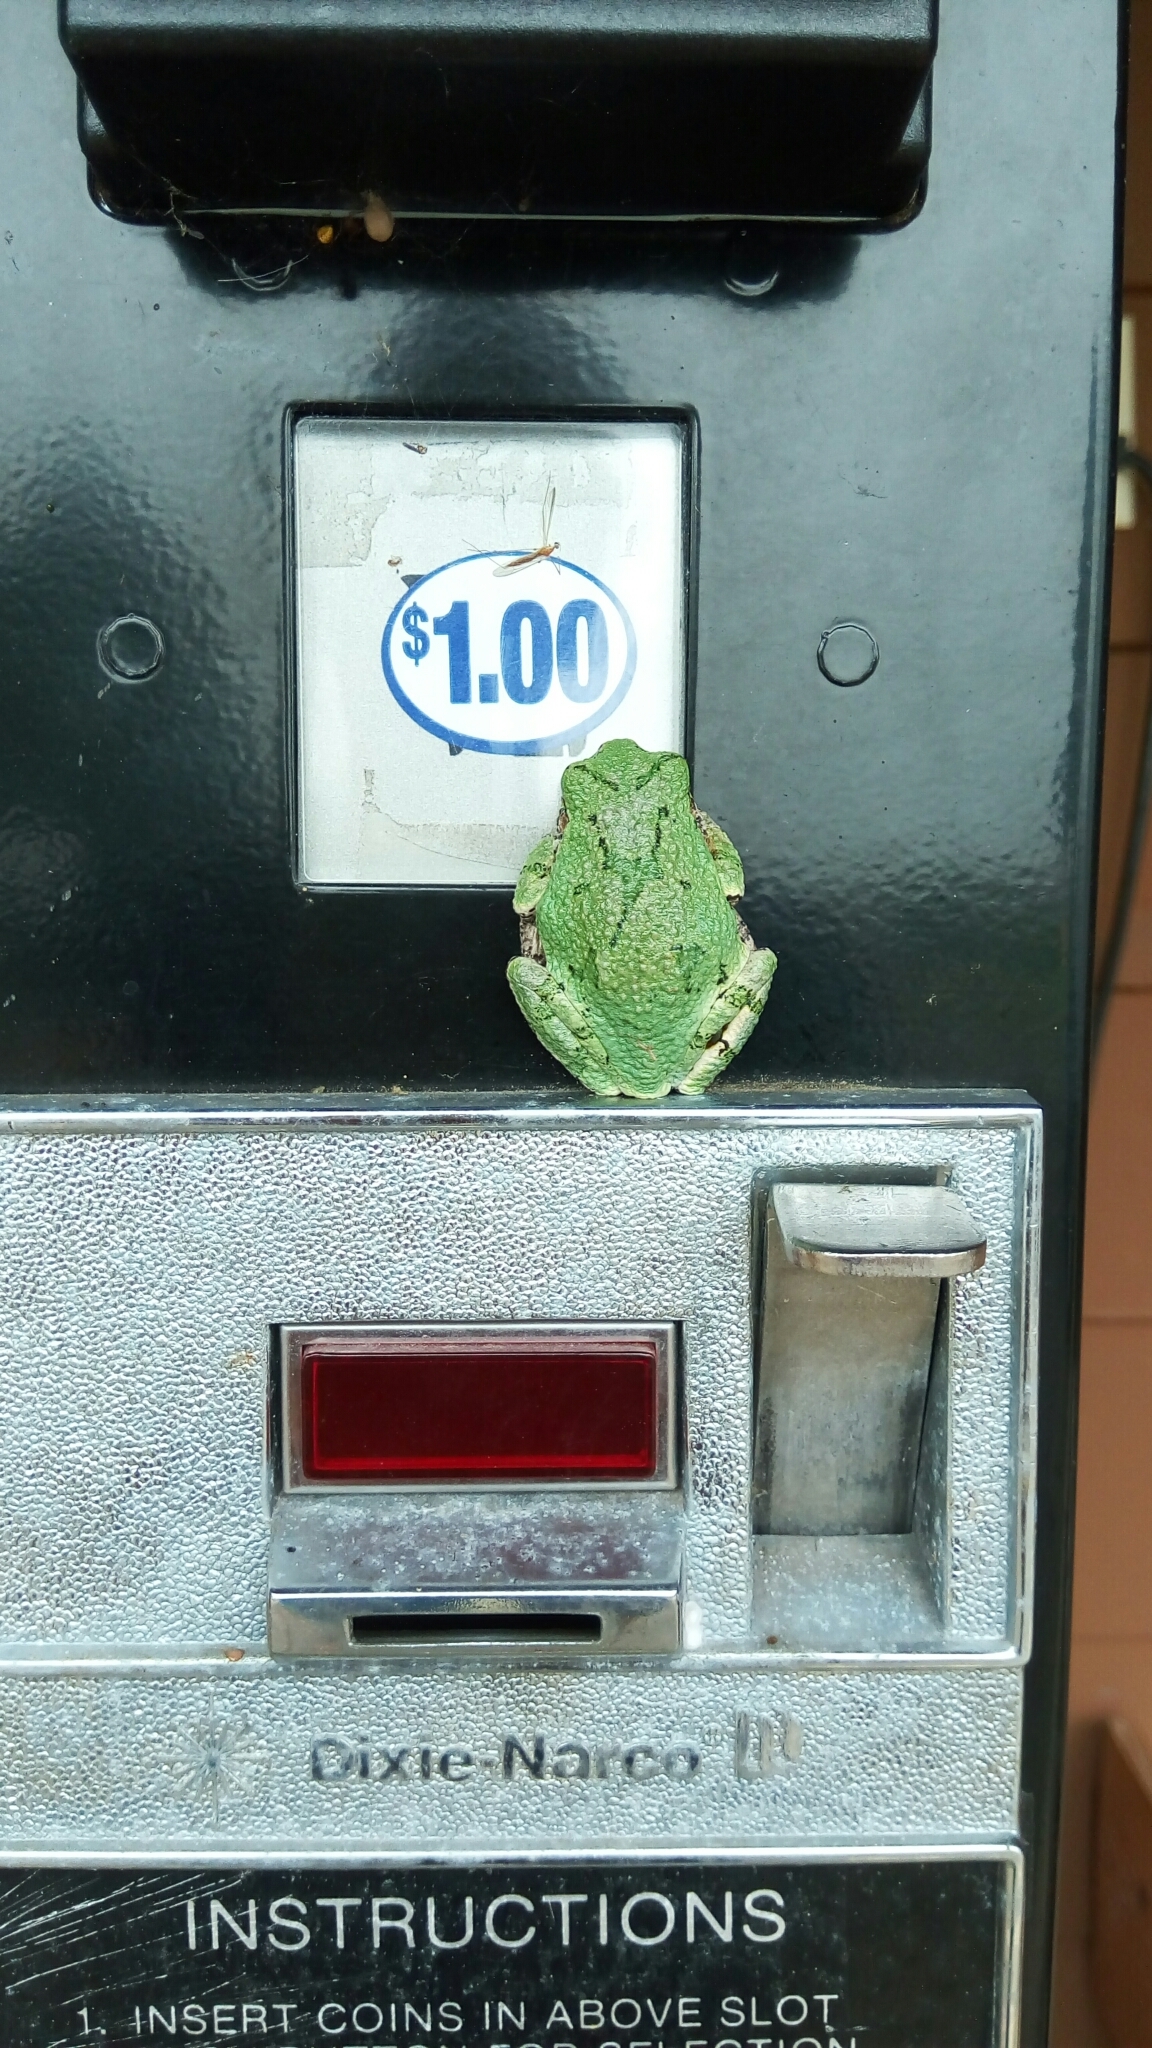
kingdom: Animalia
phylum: Chordata
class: Amphibia
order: Anura
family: Hylidae
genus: Hyla
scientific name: Hyla
